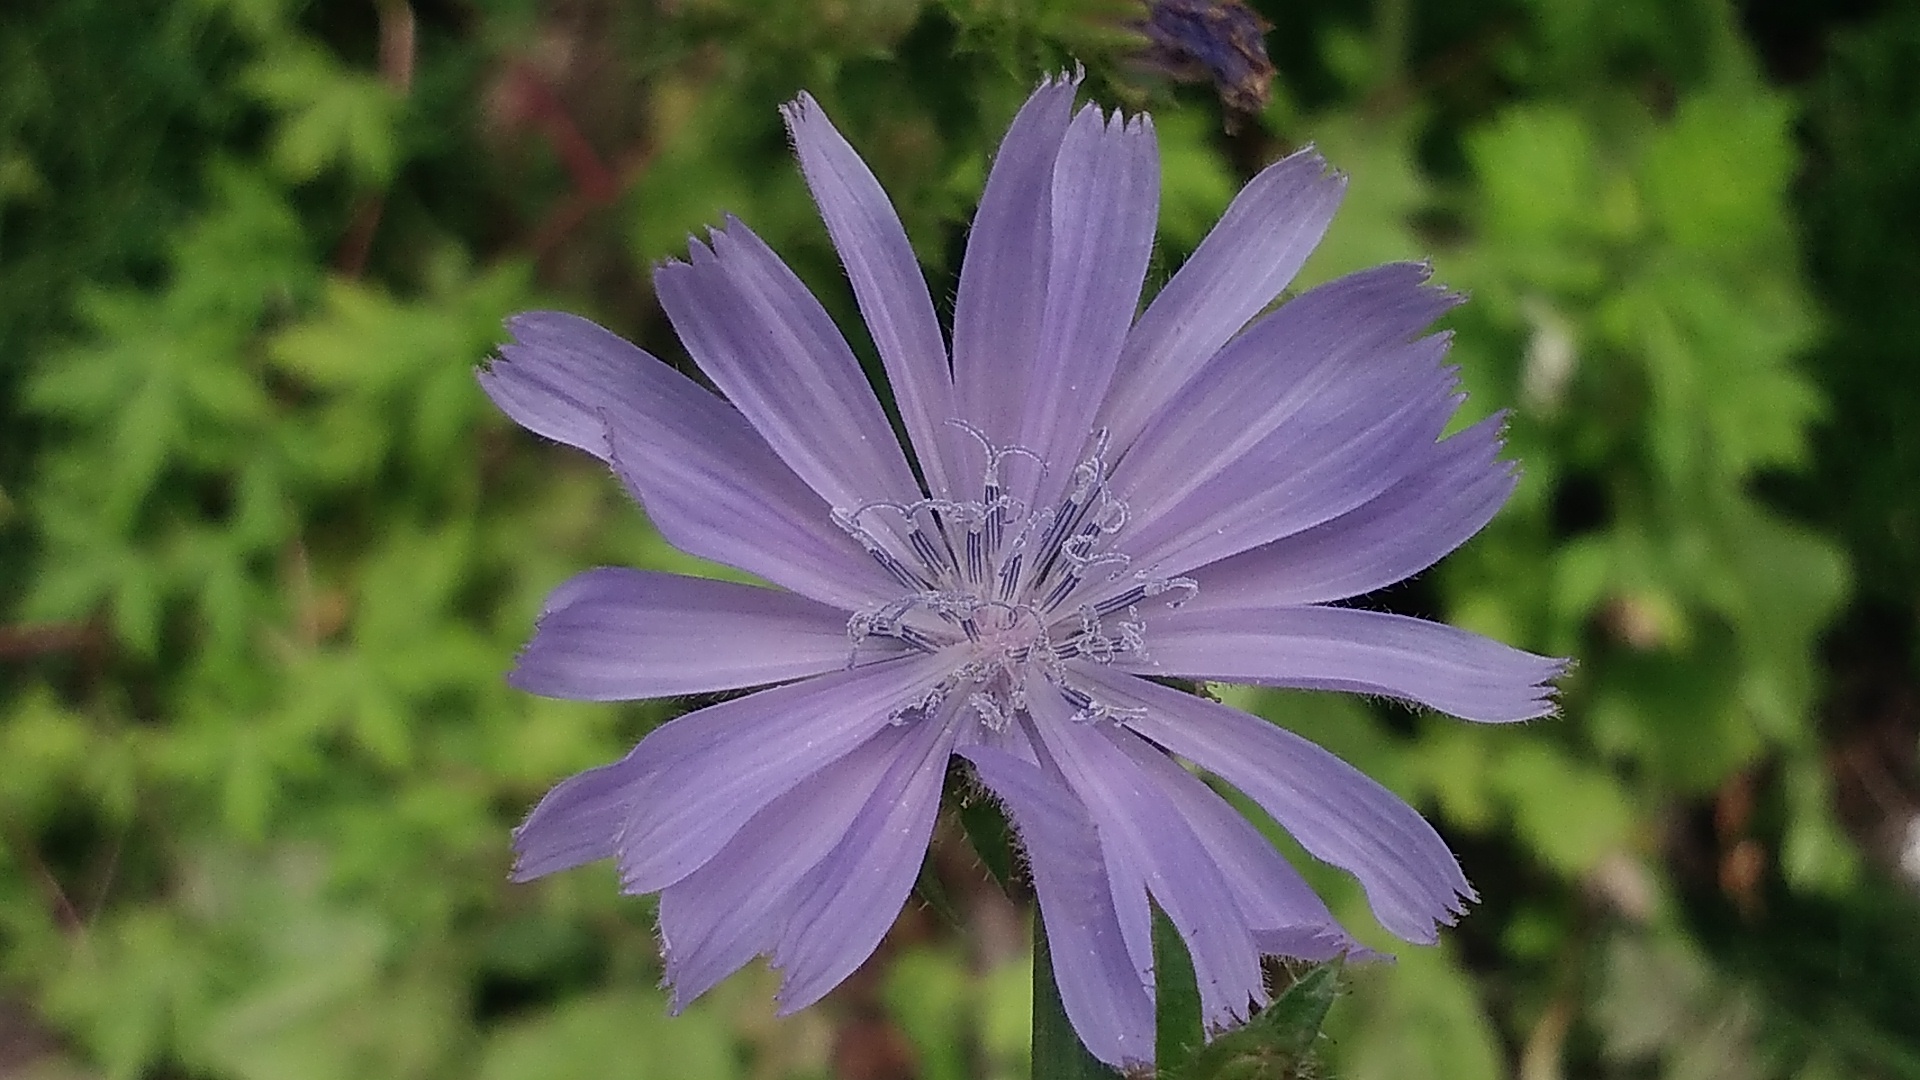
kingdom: Plantae
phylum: Tracheophyta
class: Magnoliopsida
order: Asterales
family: Asteraceae
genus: Cichorium
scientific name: Cichorium intybus
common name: Chicory
